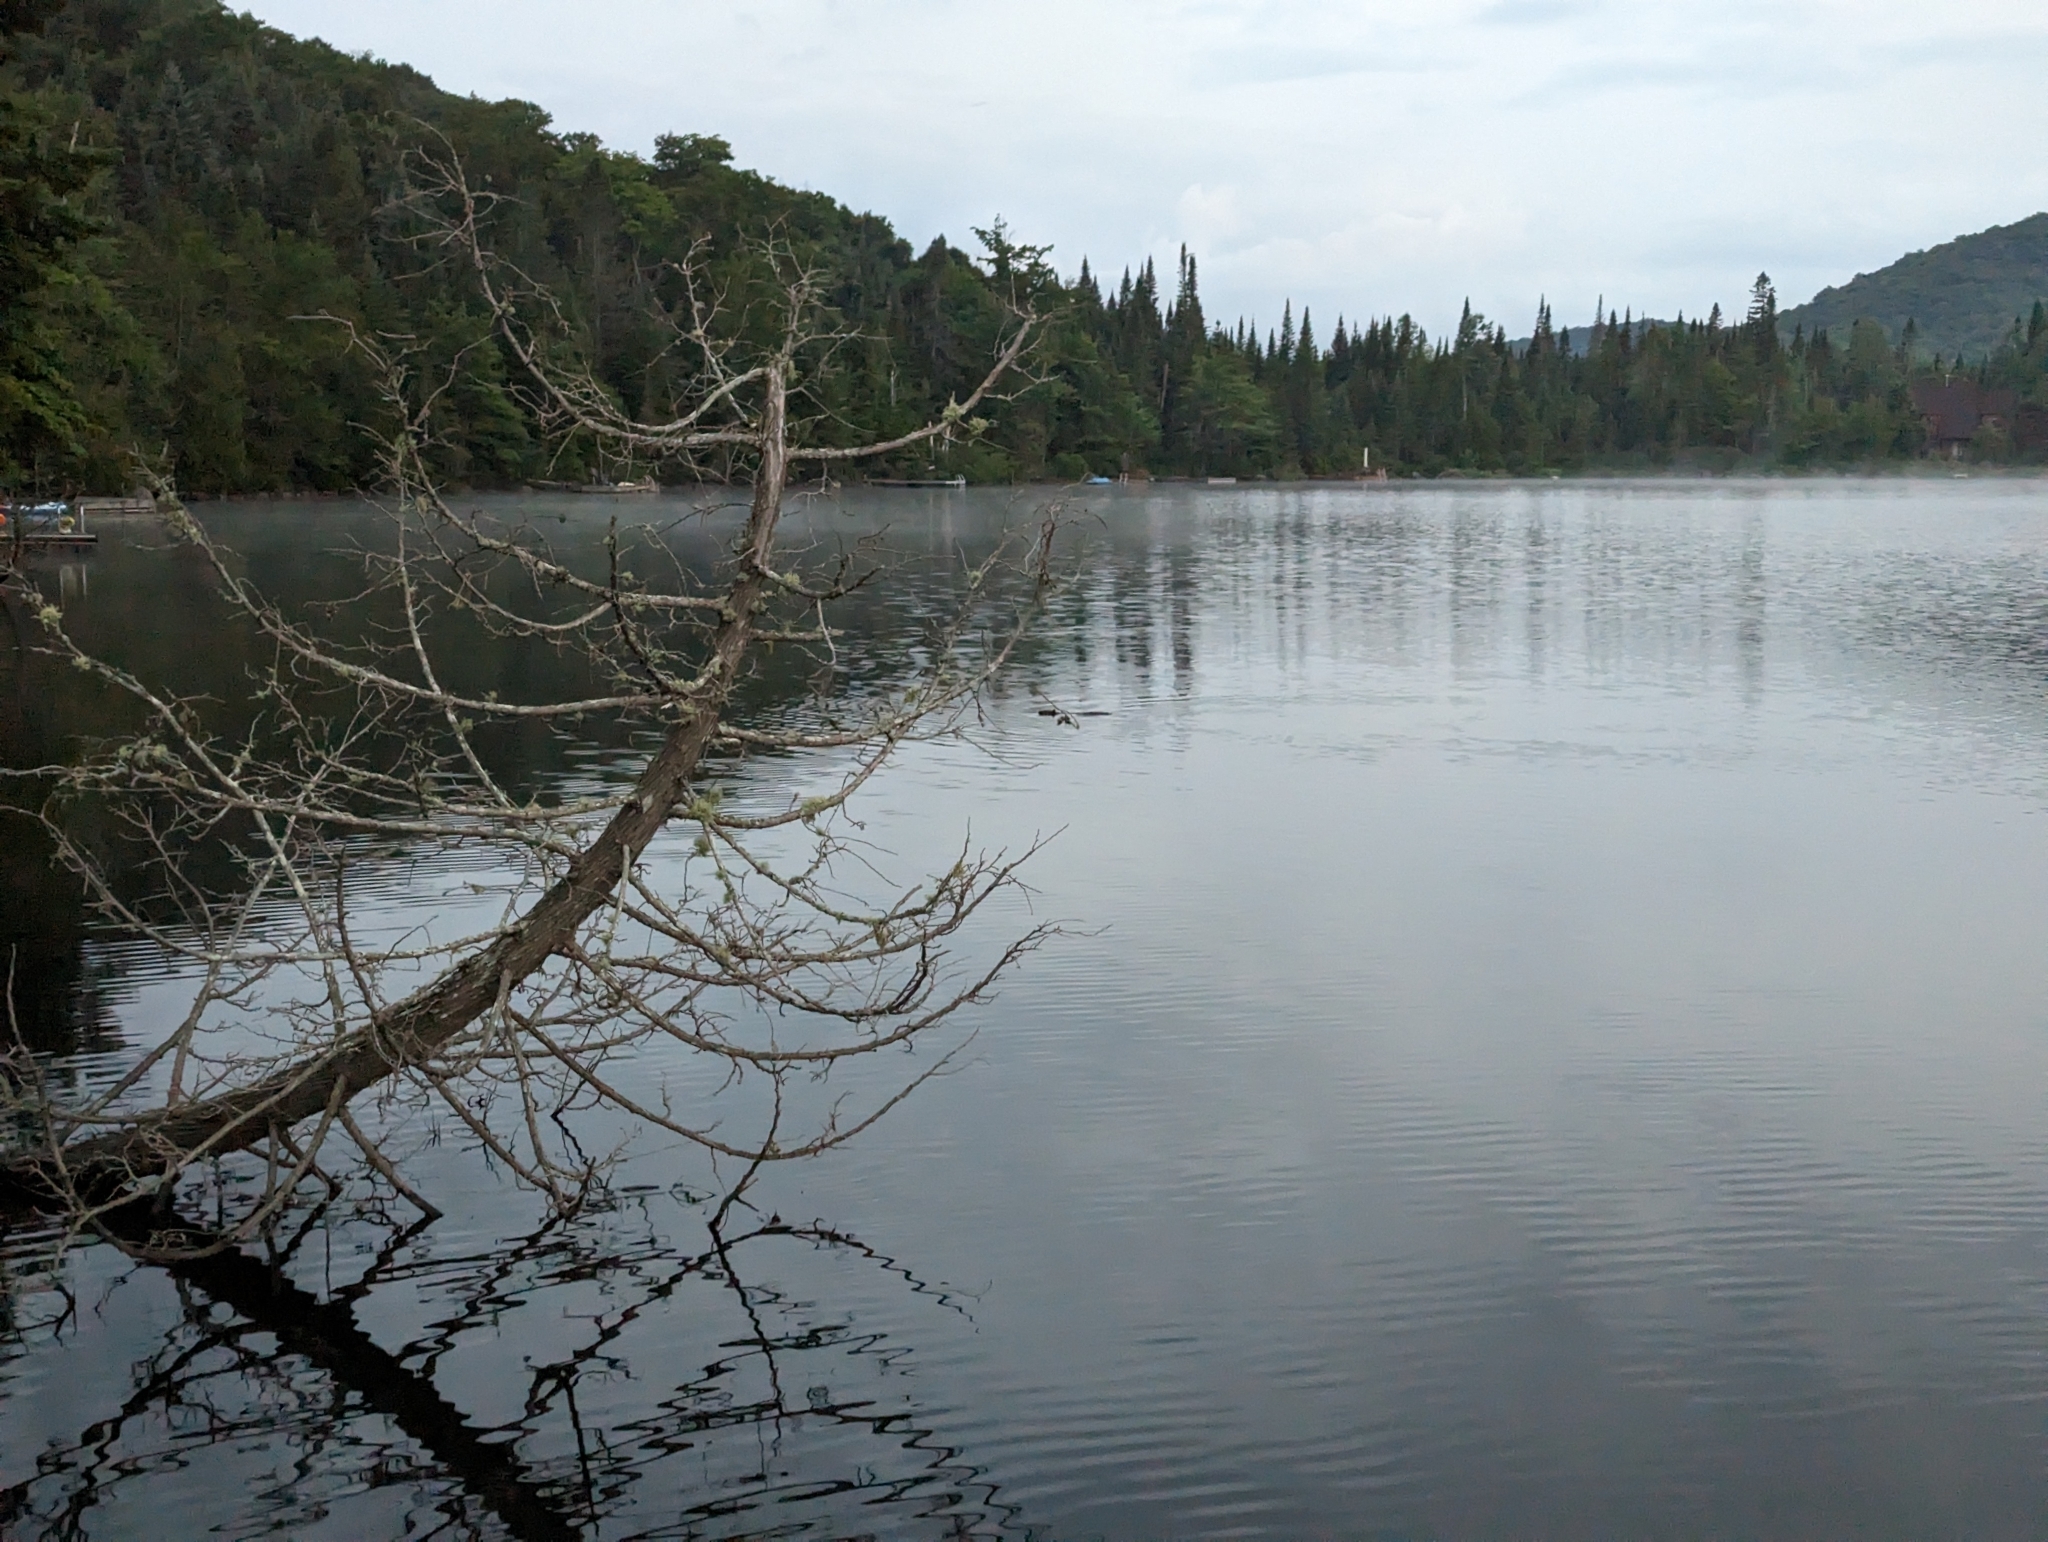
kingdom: Animalia
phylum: Chordata
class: Mammalia
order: Rodentia
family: Castoridae
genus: Castor
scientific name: Castor canadensis
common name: American beaver
